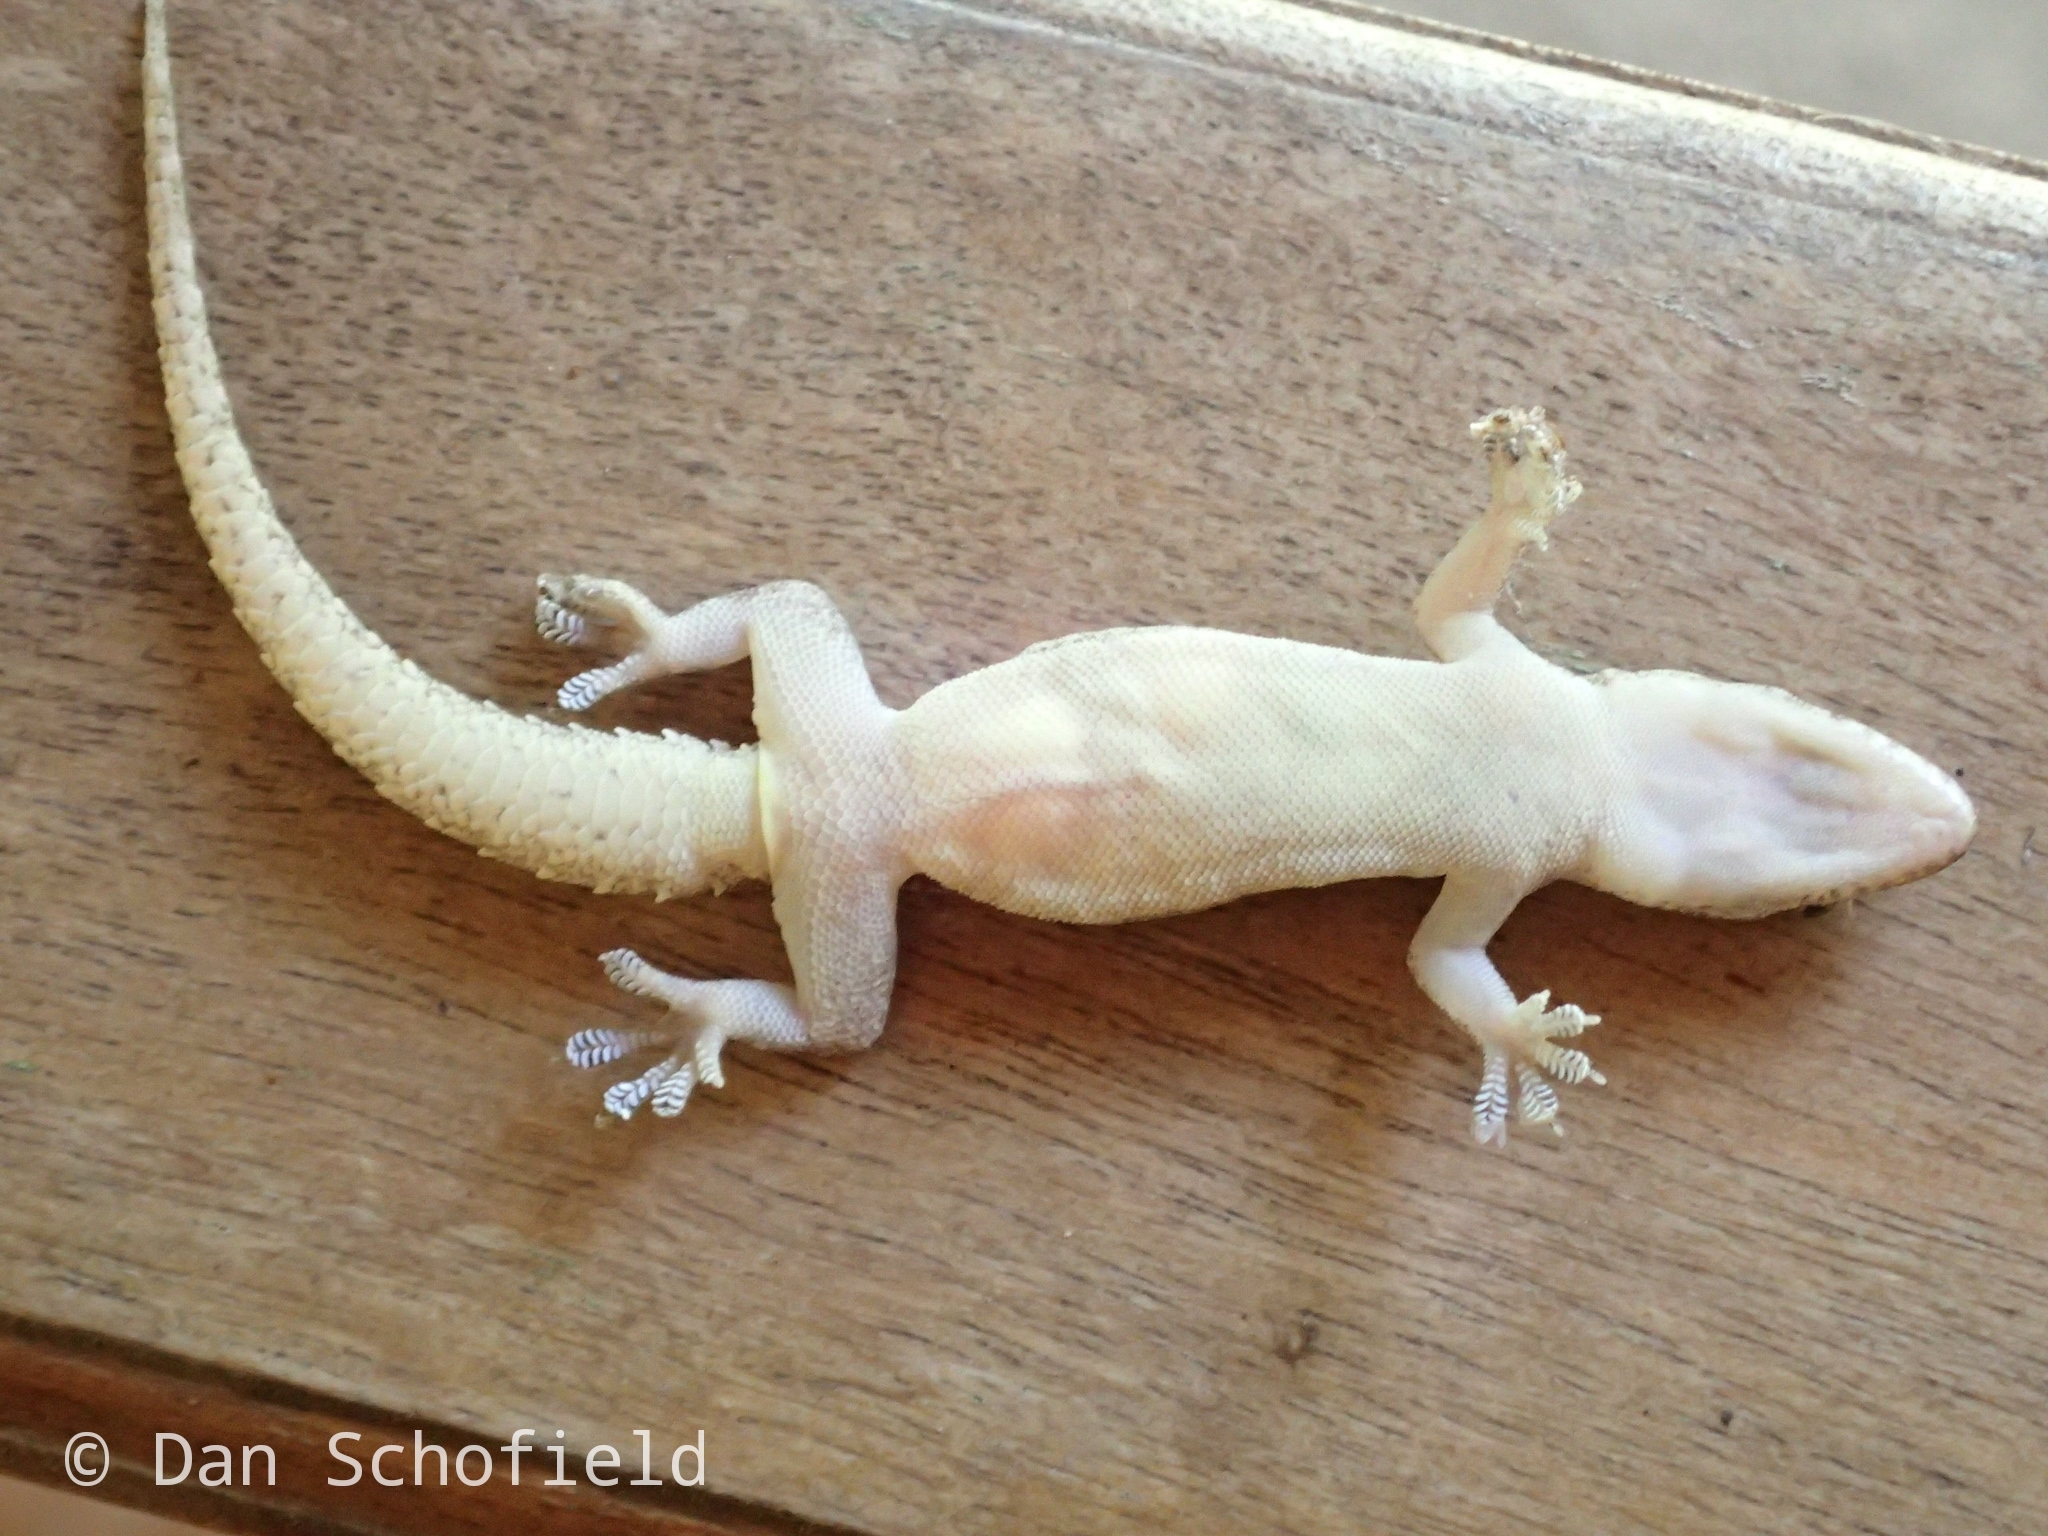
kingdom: Animalia
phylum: Chordata
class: Squamata
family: Gekkonidae
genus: Hemidactylus
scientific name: Hemidactylus frenatus
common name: Common house gecko
